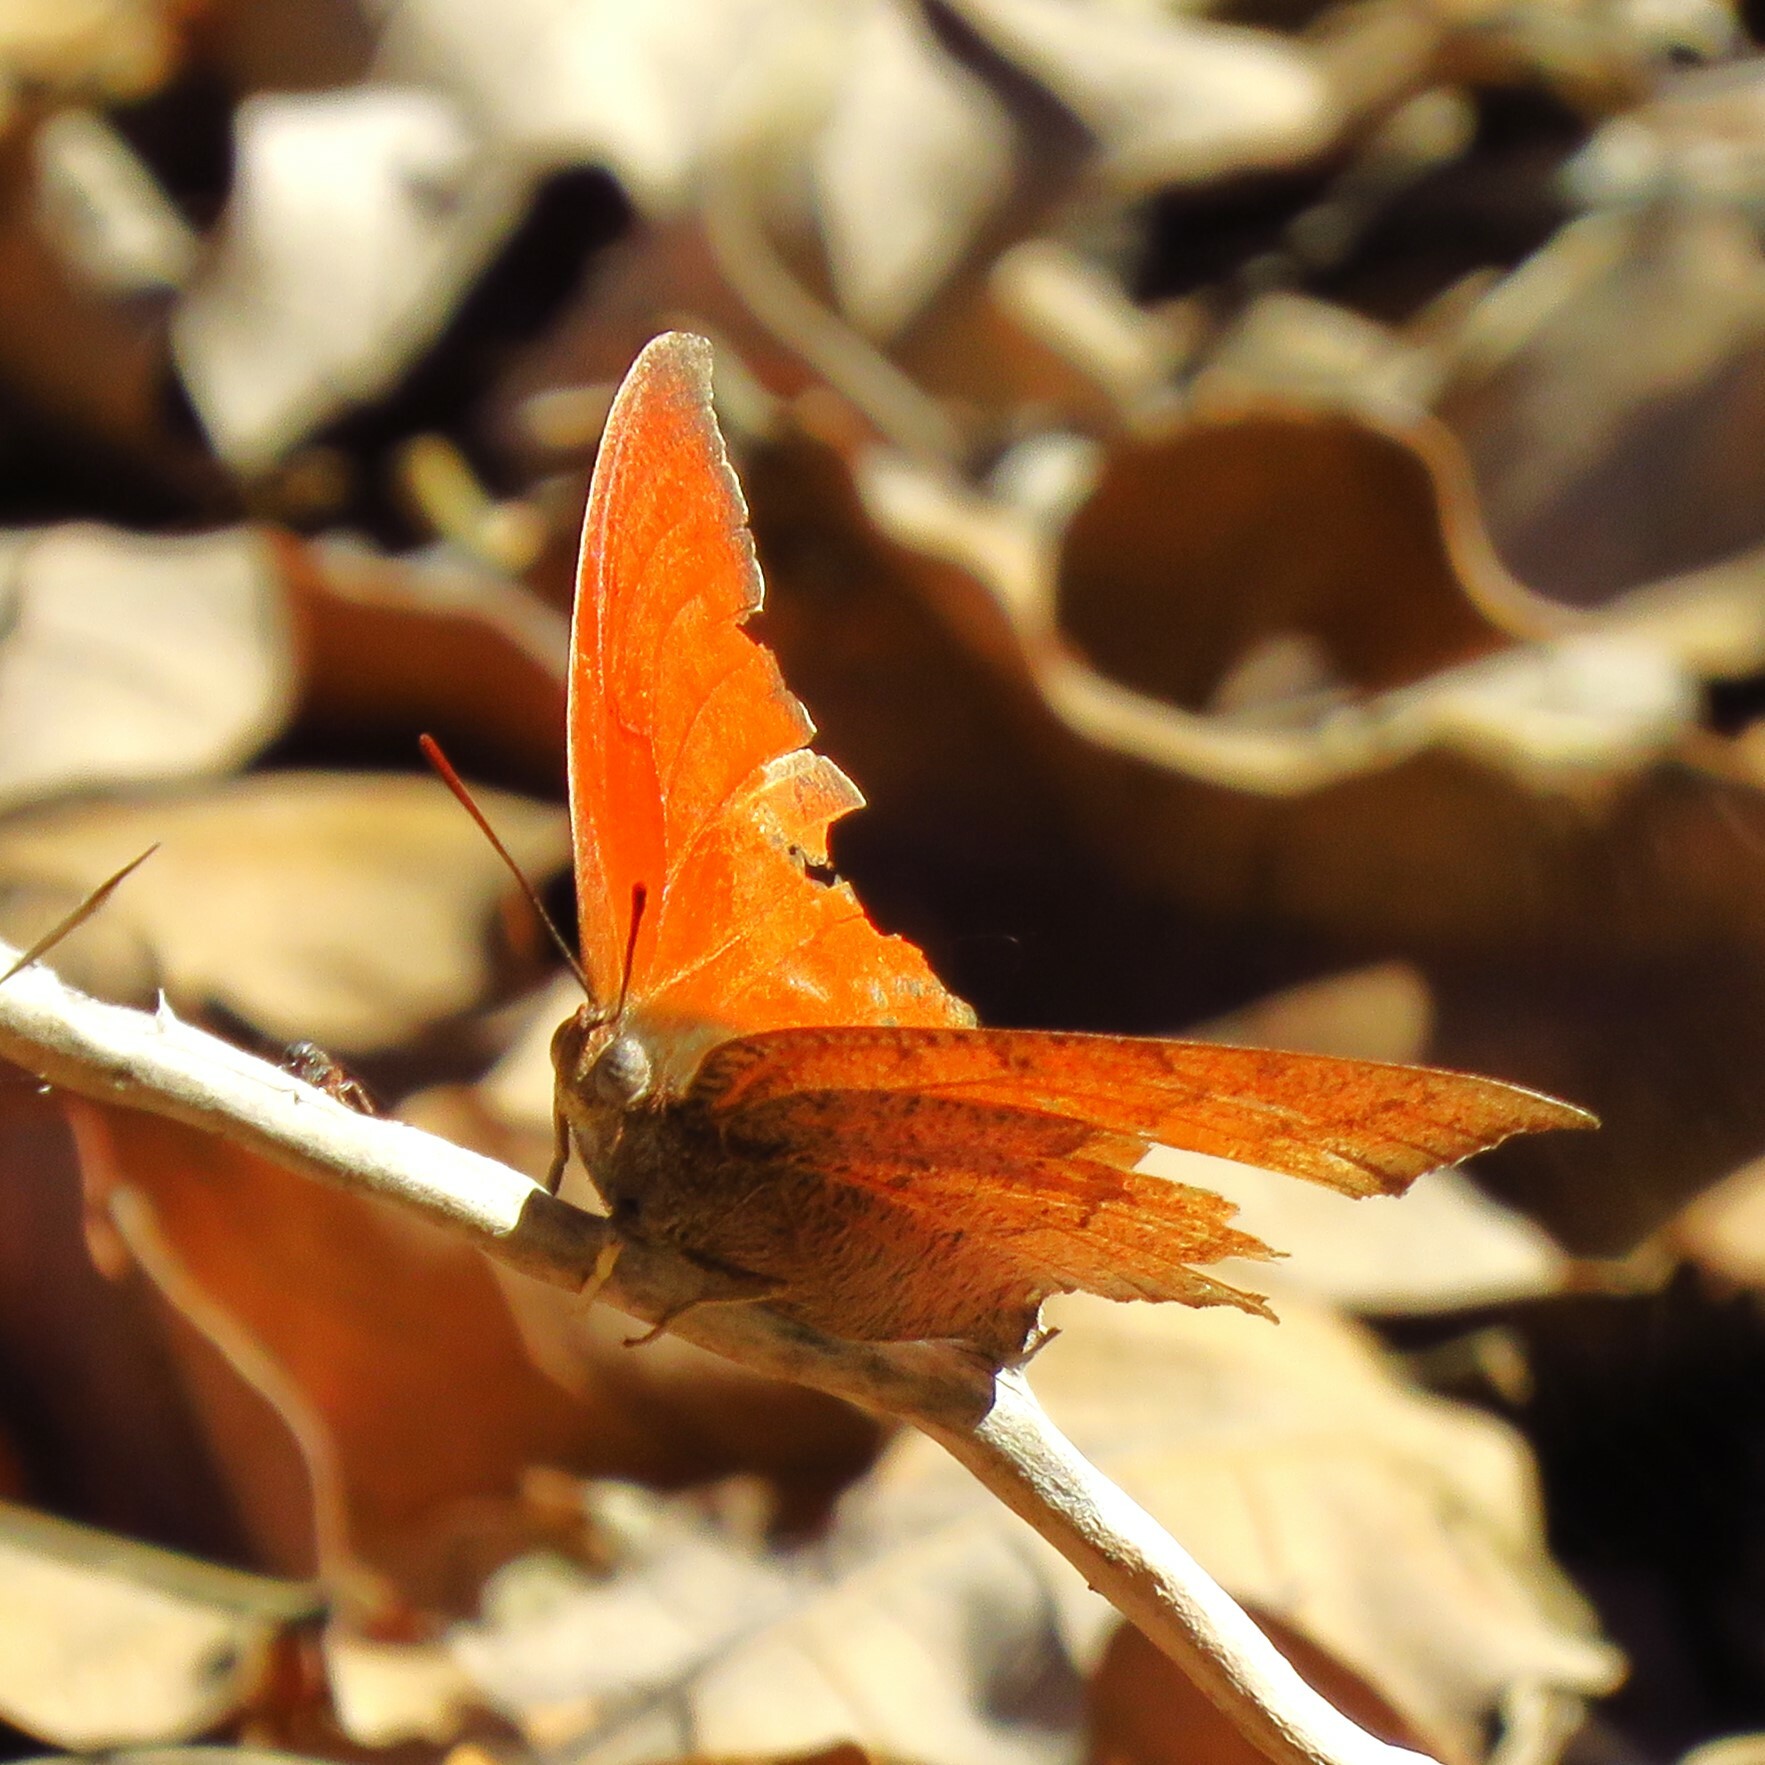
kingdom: Animalia
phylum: Arthropoda
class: Insecta
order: Lepidoptera
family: Nymphalidae
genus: Anaea
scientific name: Anaea andria
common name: Goatweed leafwing
